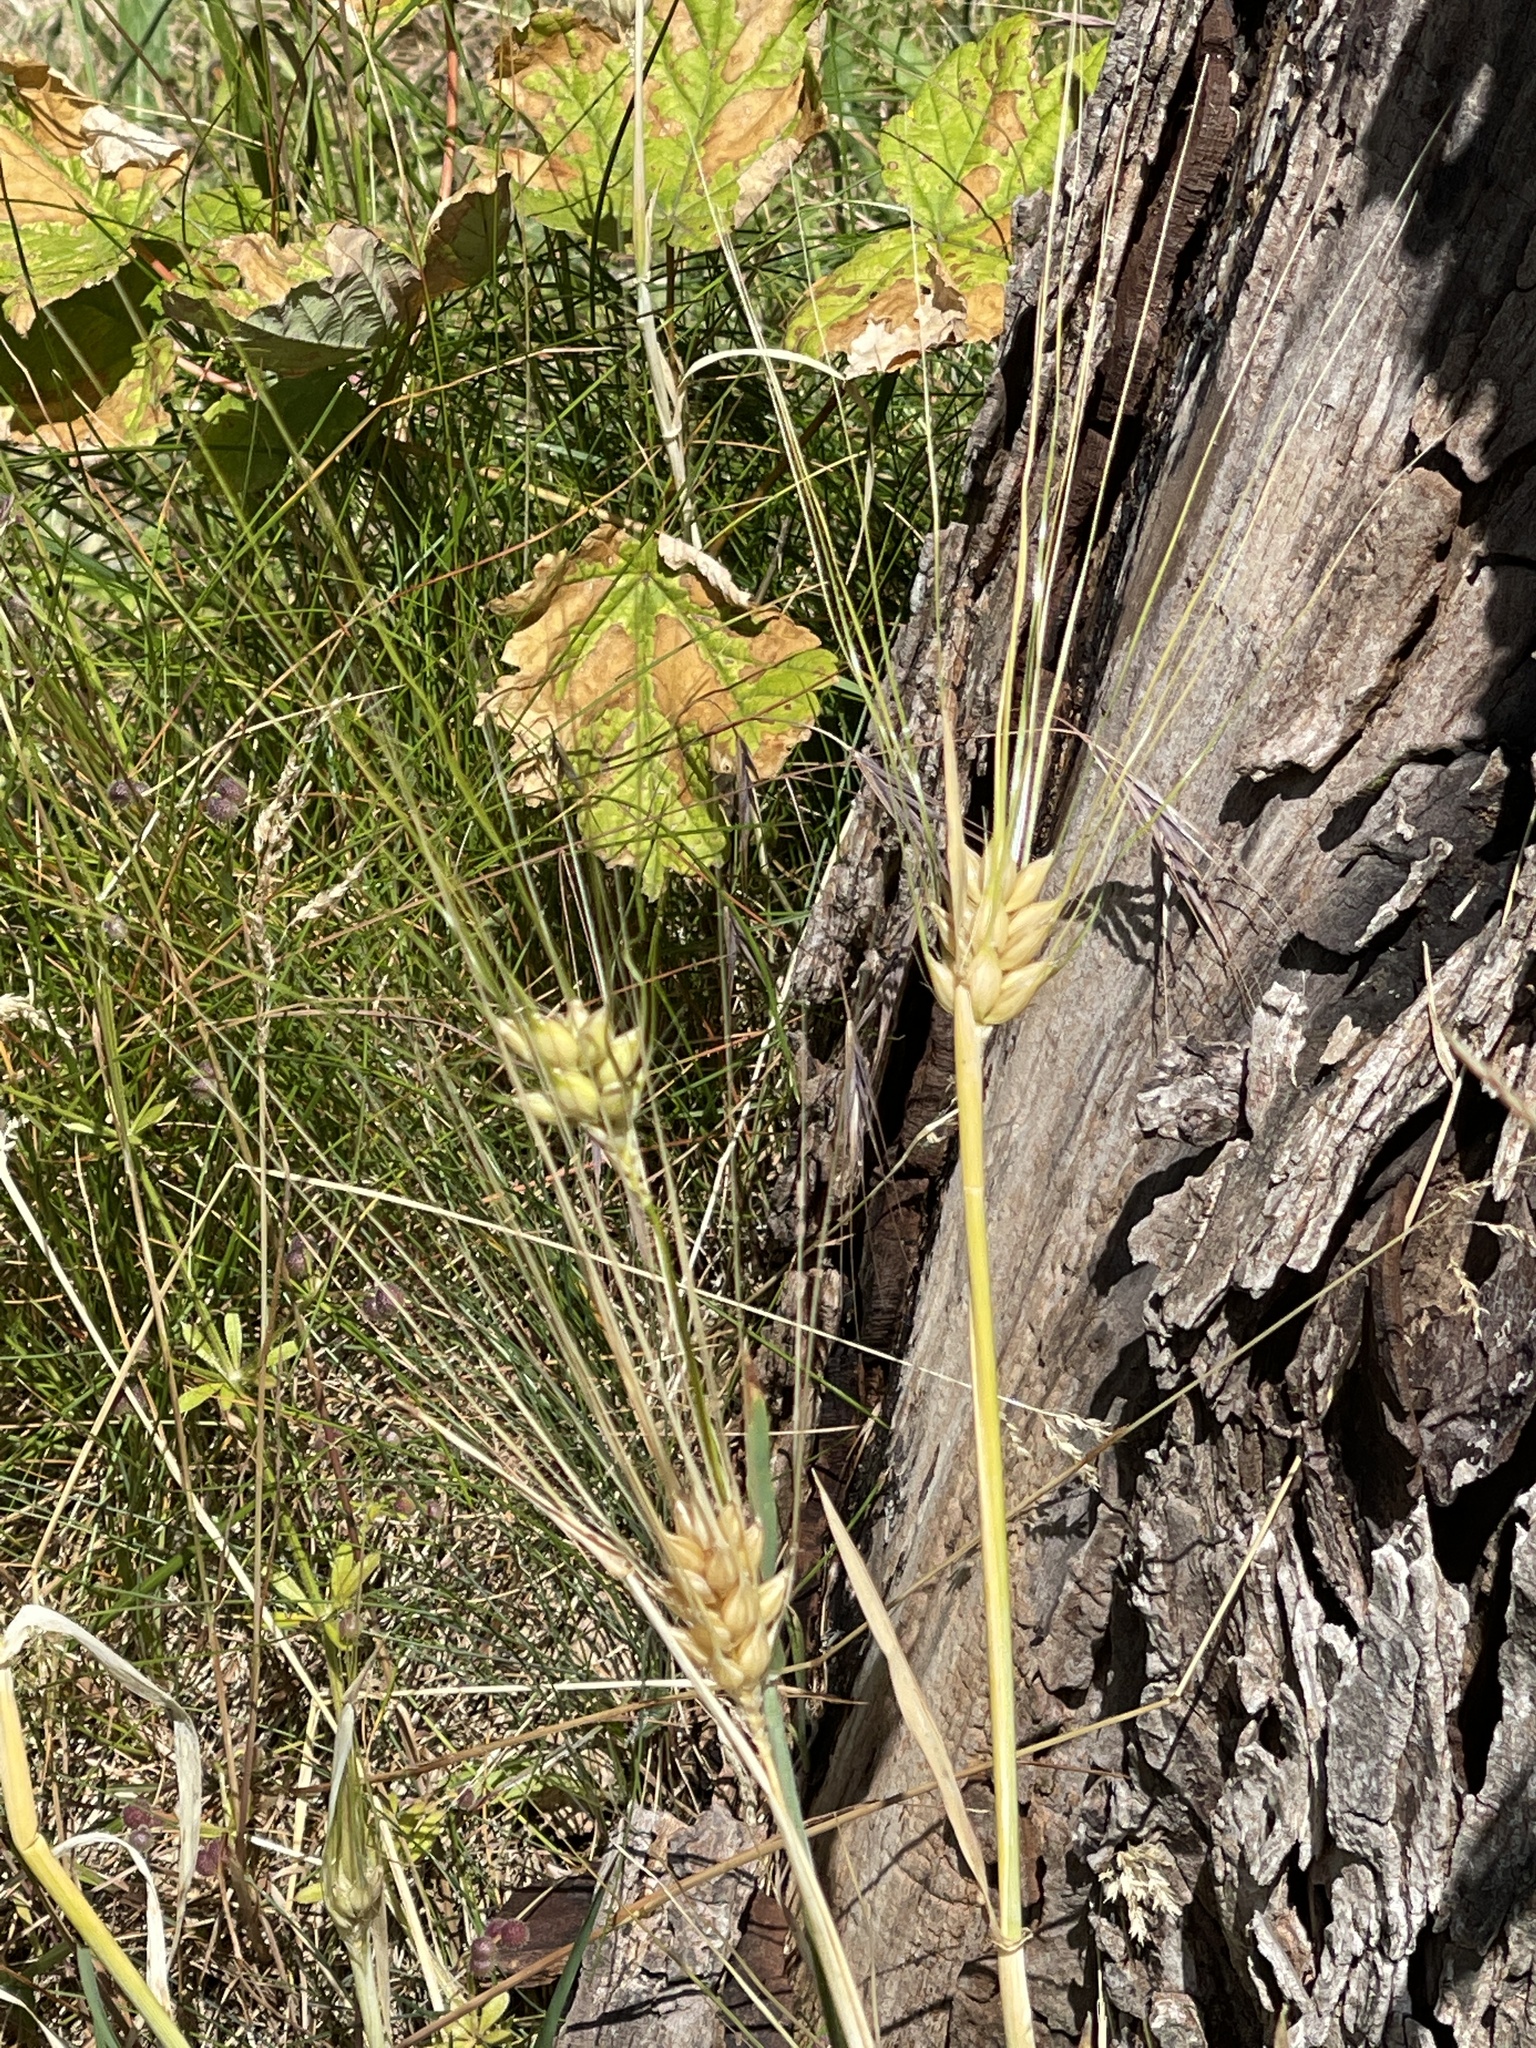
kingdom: Plantae
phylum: Tracheophyta
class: Liliopsida
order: Poales
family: Poaceae
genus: Hordeum
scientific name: Hordeum vulgare
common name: Common barley
